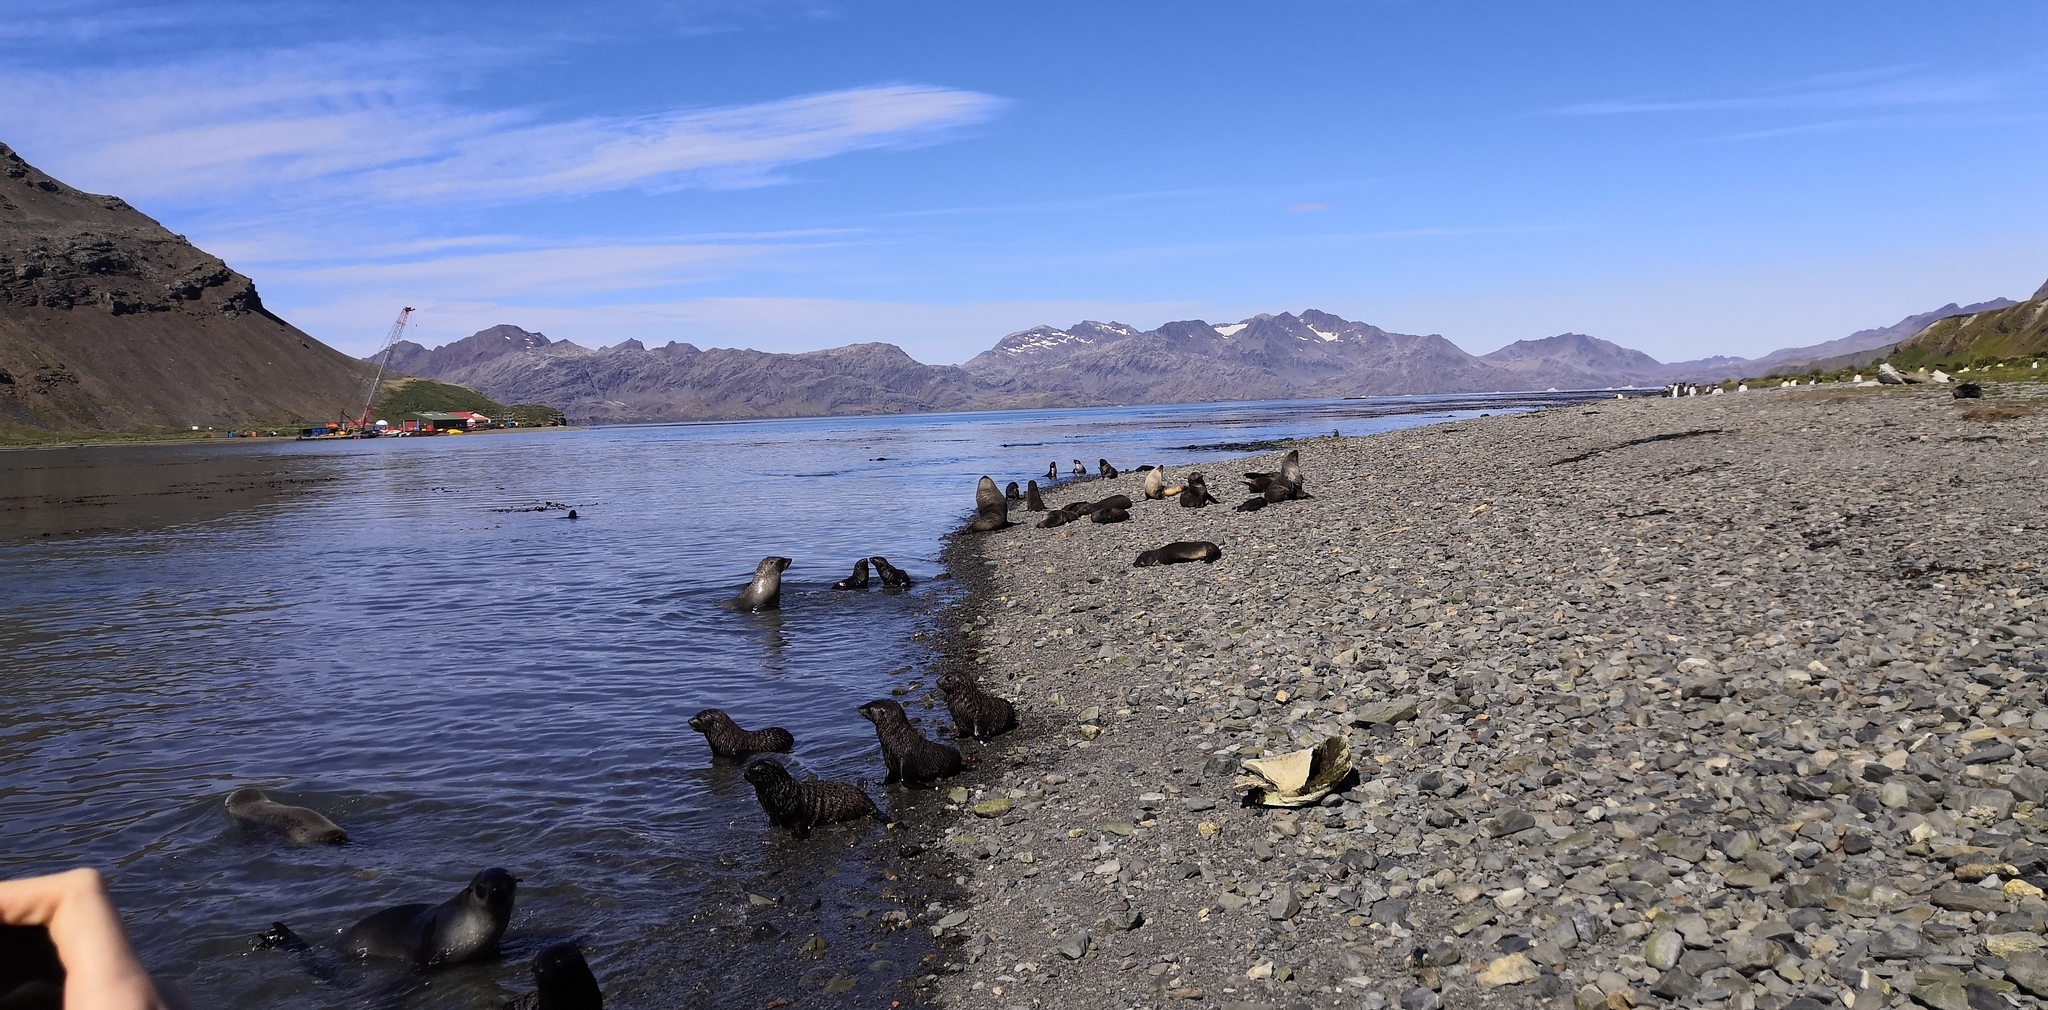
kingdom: Animalia
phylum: Chordata
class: Mammalia
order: Carnivora
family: Otariidae
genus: Arctocephalus
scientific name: Arctocephalus gazella
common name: Antarctic fur seal
